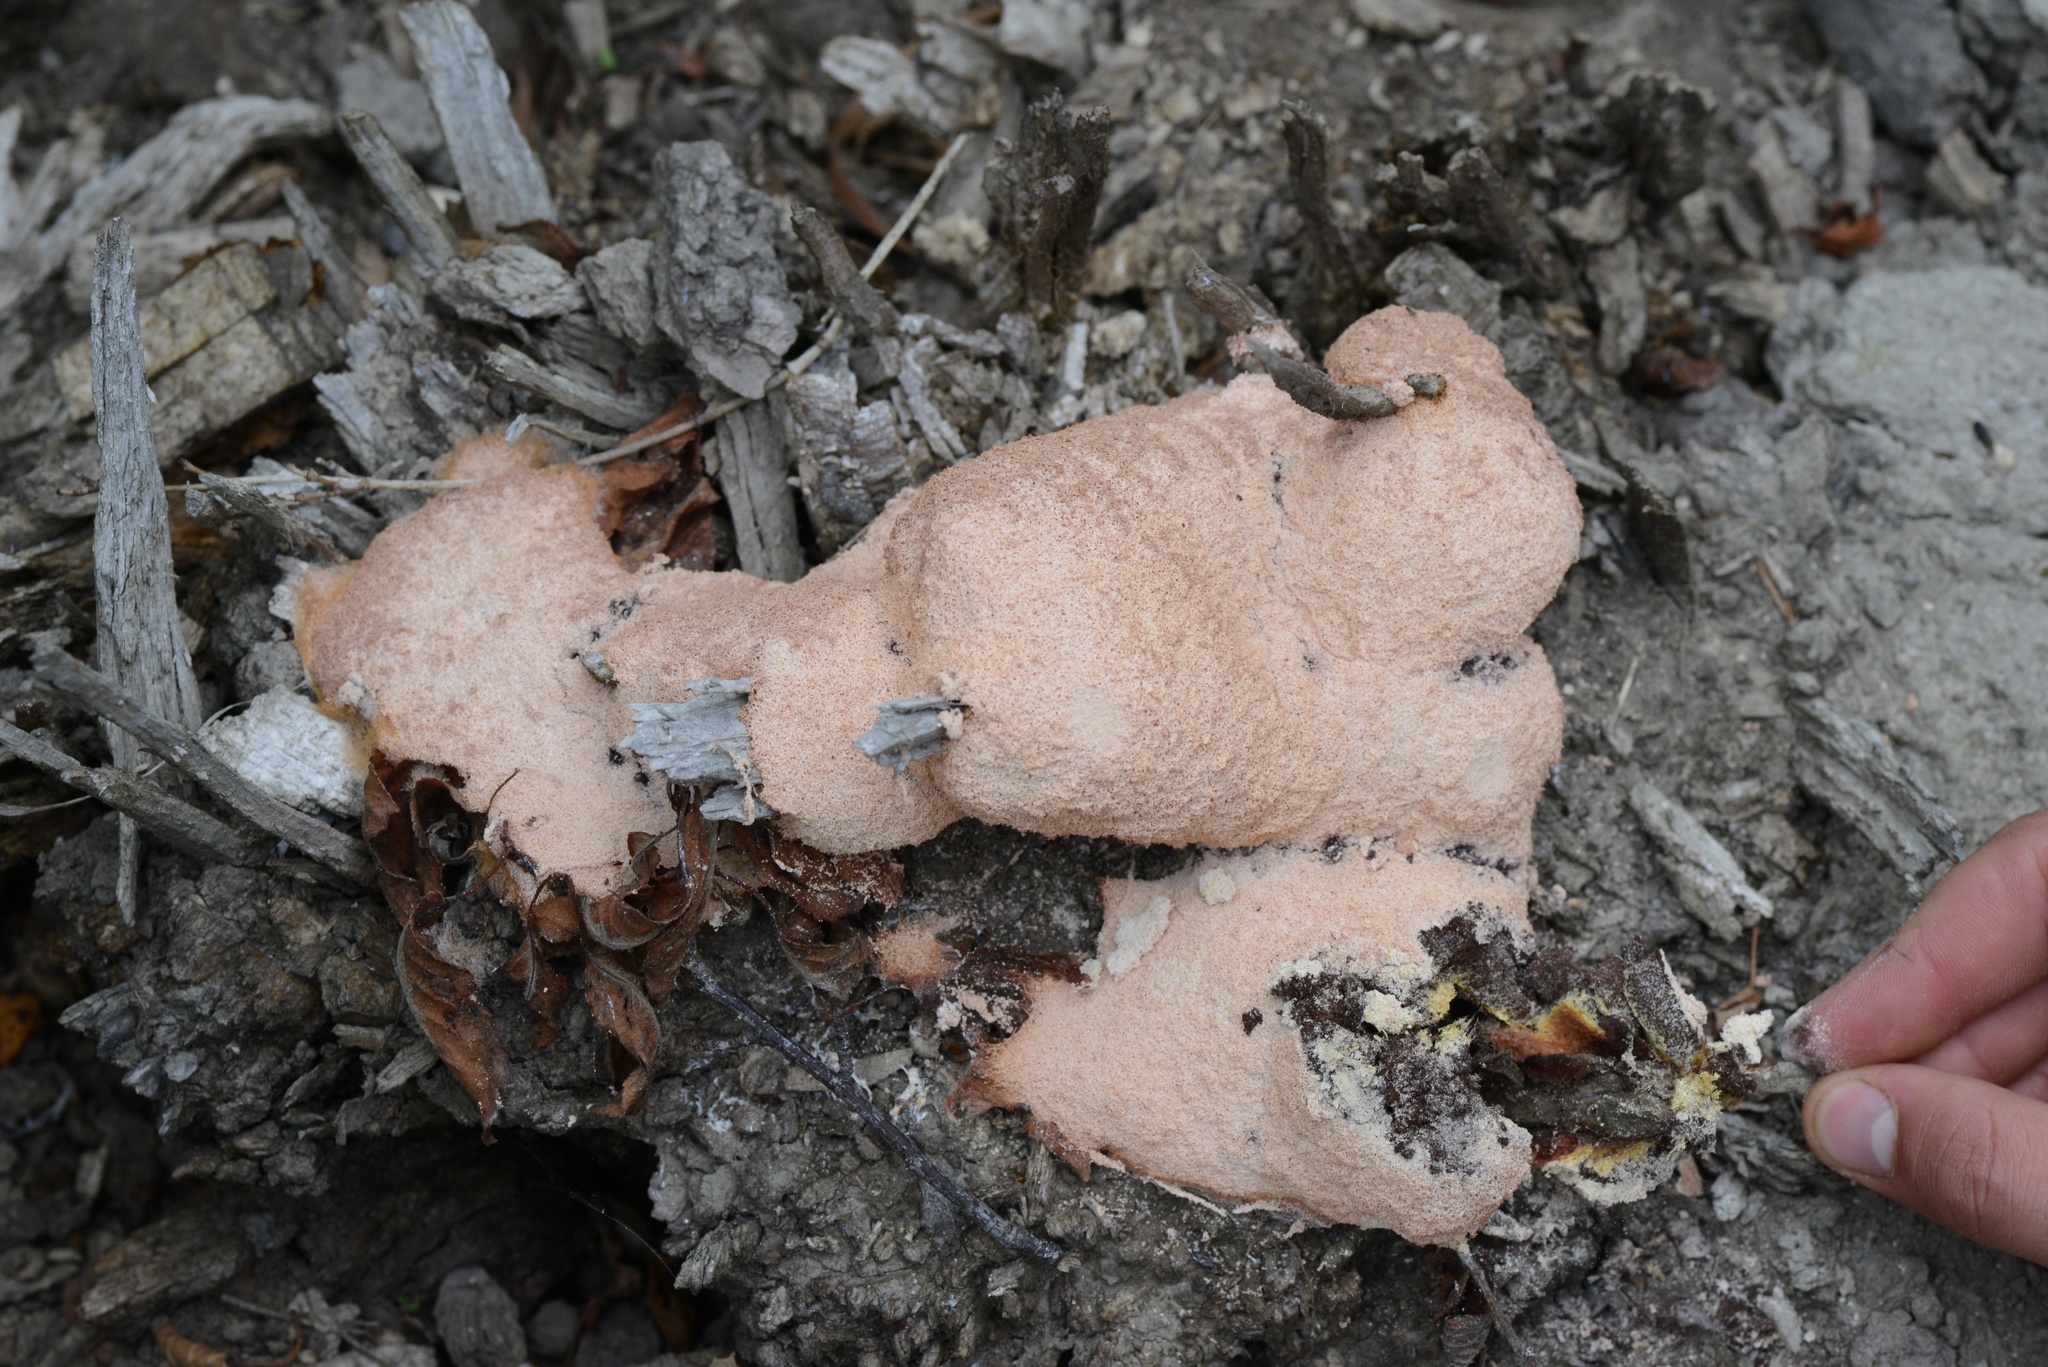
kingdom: Protozoa
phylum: Mycetozoa
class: Myxomycetes
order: Physarales
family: Physaraceae
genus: Fuligo
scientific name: Fuligo septica
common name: Dog vomit slime mold
